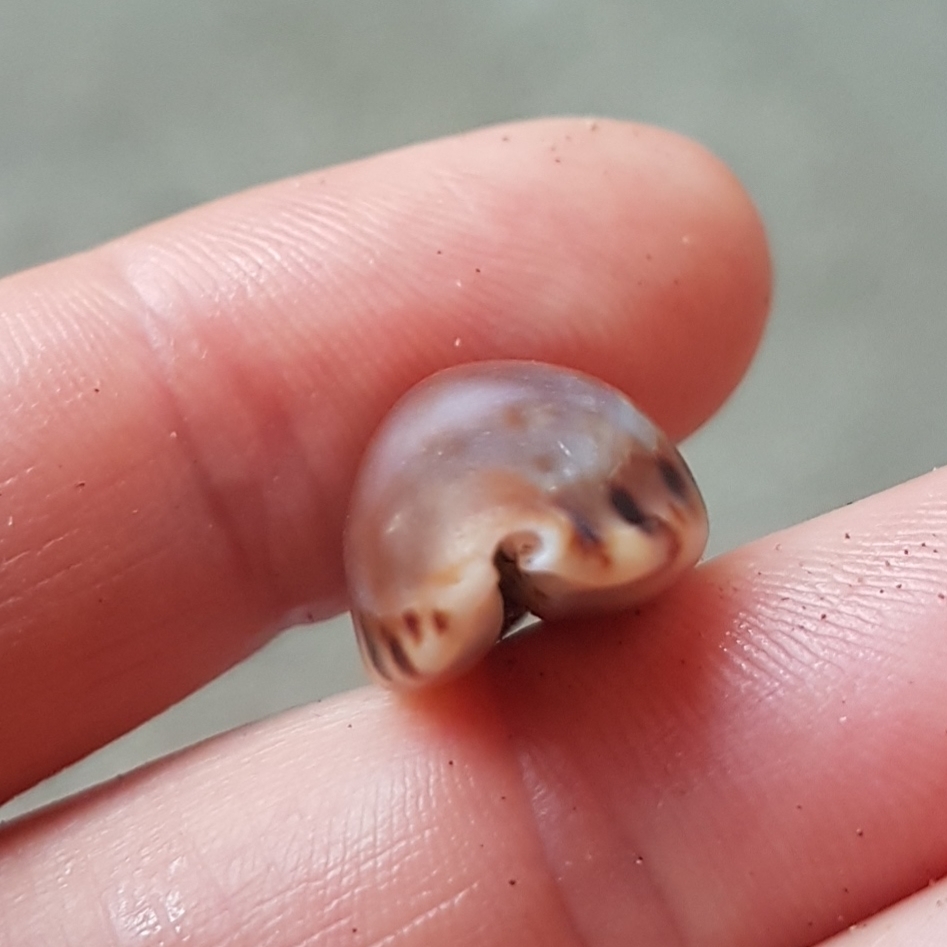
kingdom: Animalia
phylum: Mollusca
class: Gastropoda
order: Littorinimorpha
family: Cypraeidae
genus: Pseudozonaria
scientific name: Pseudozonaria arabicula
